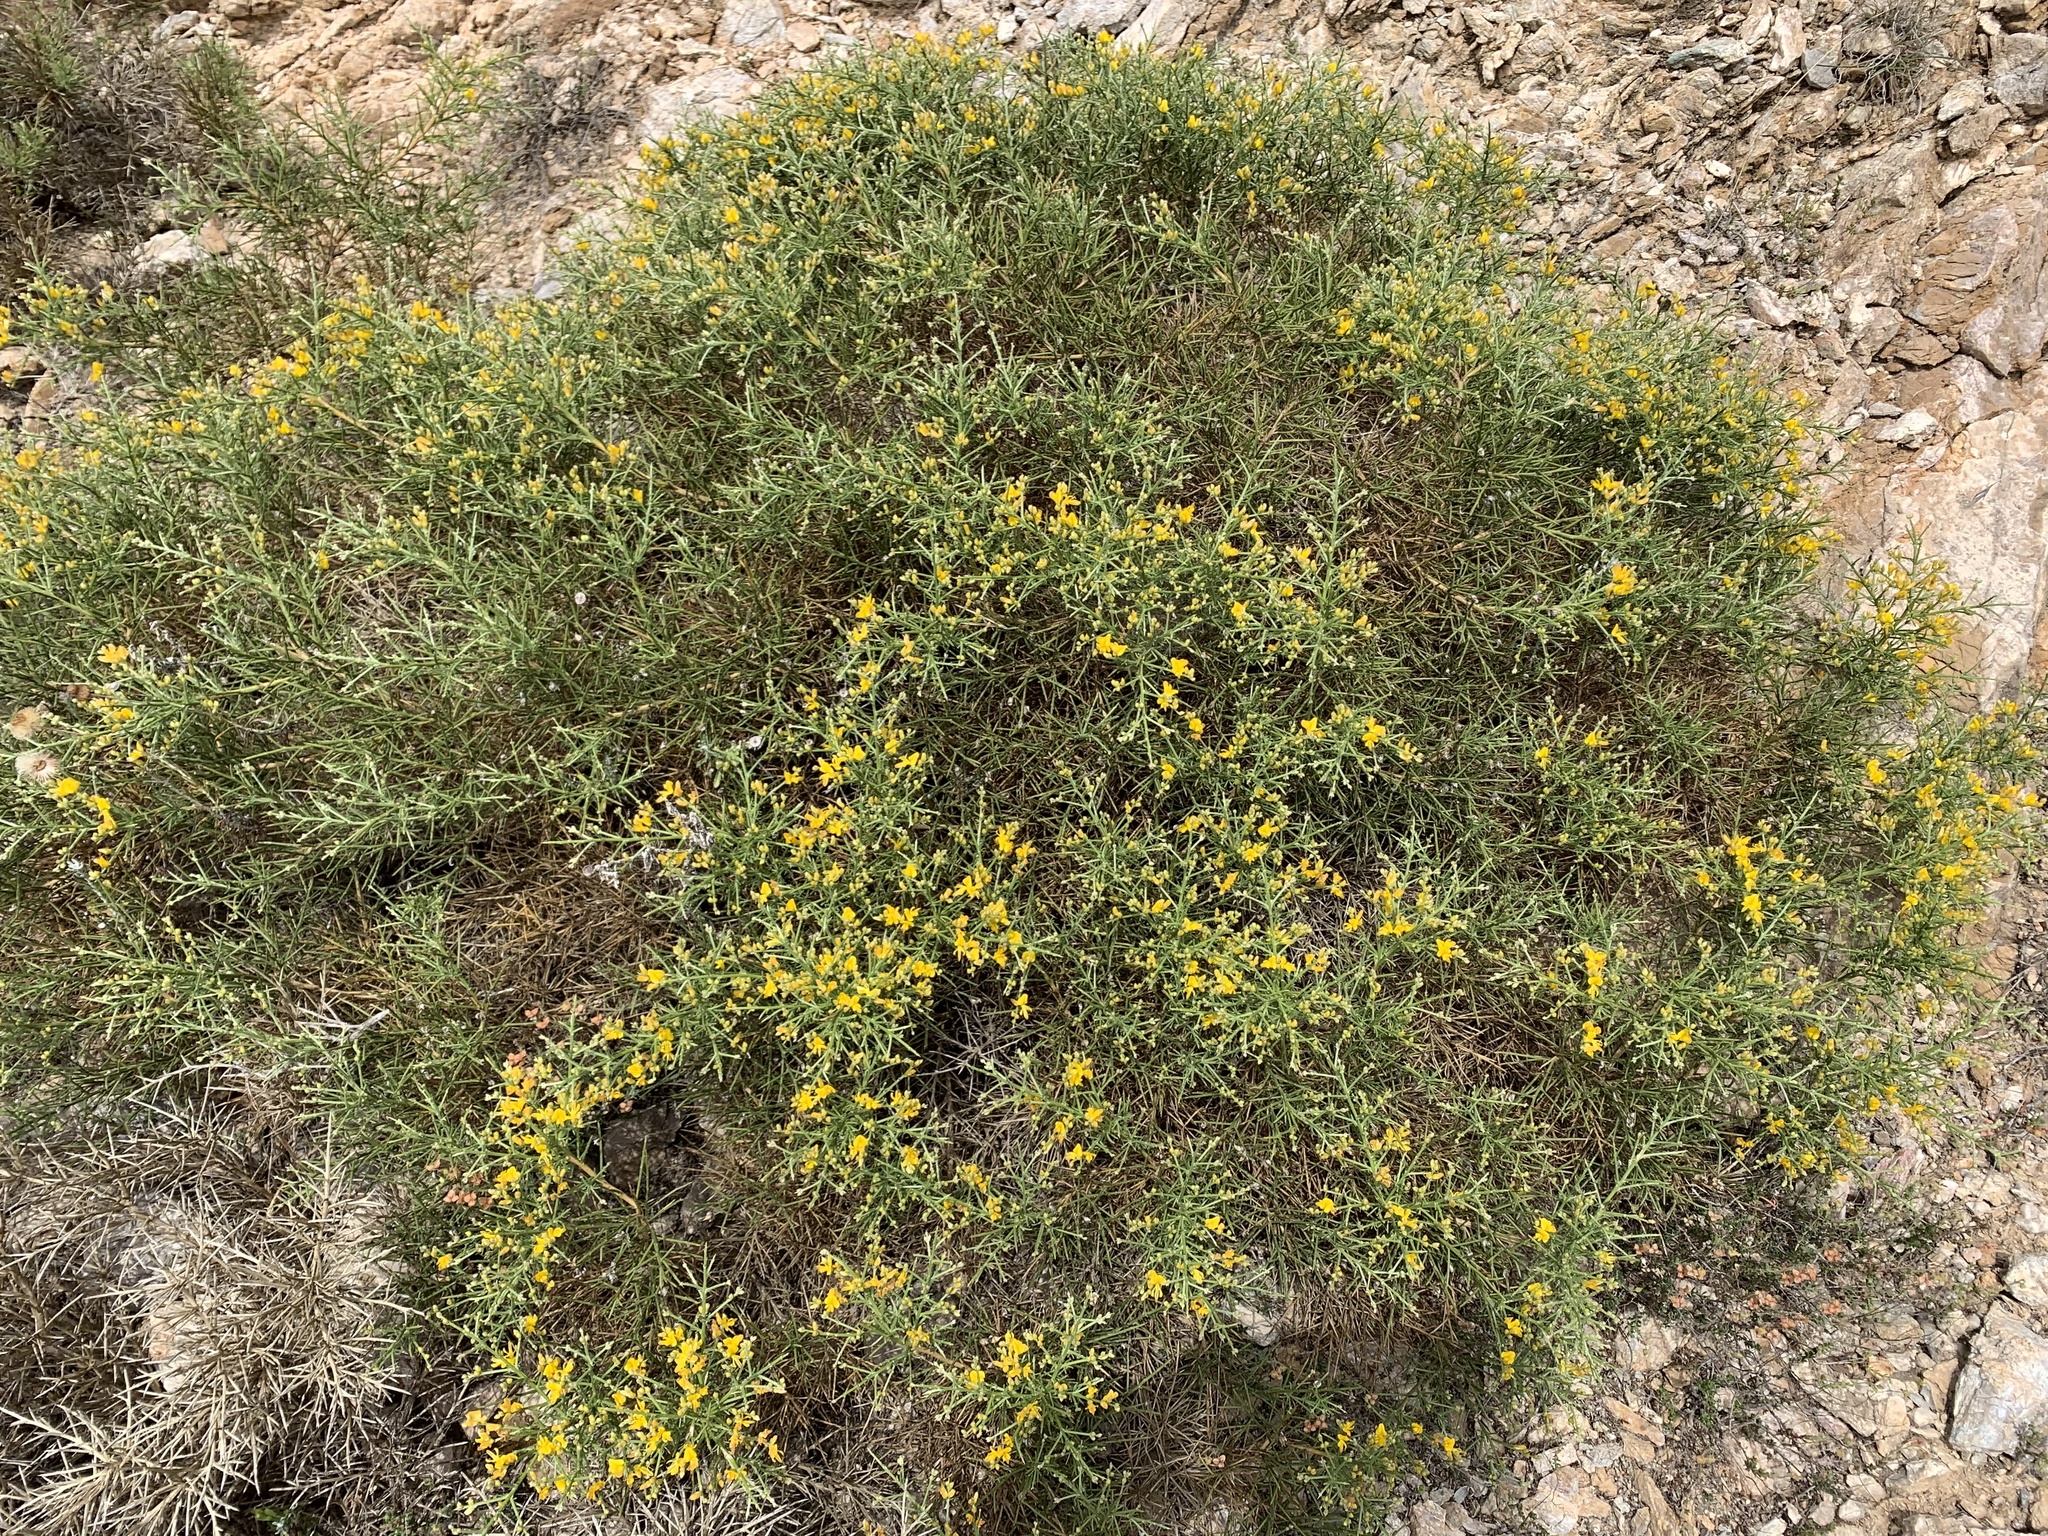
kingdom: Plantae
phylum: Tracheophyta
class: Magnoliopsida
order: Fabales
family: Fabaceae
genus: Calicotome
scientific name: Calicotome villosa
